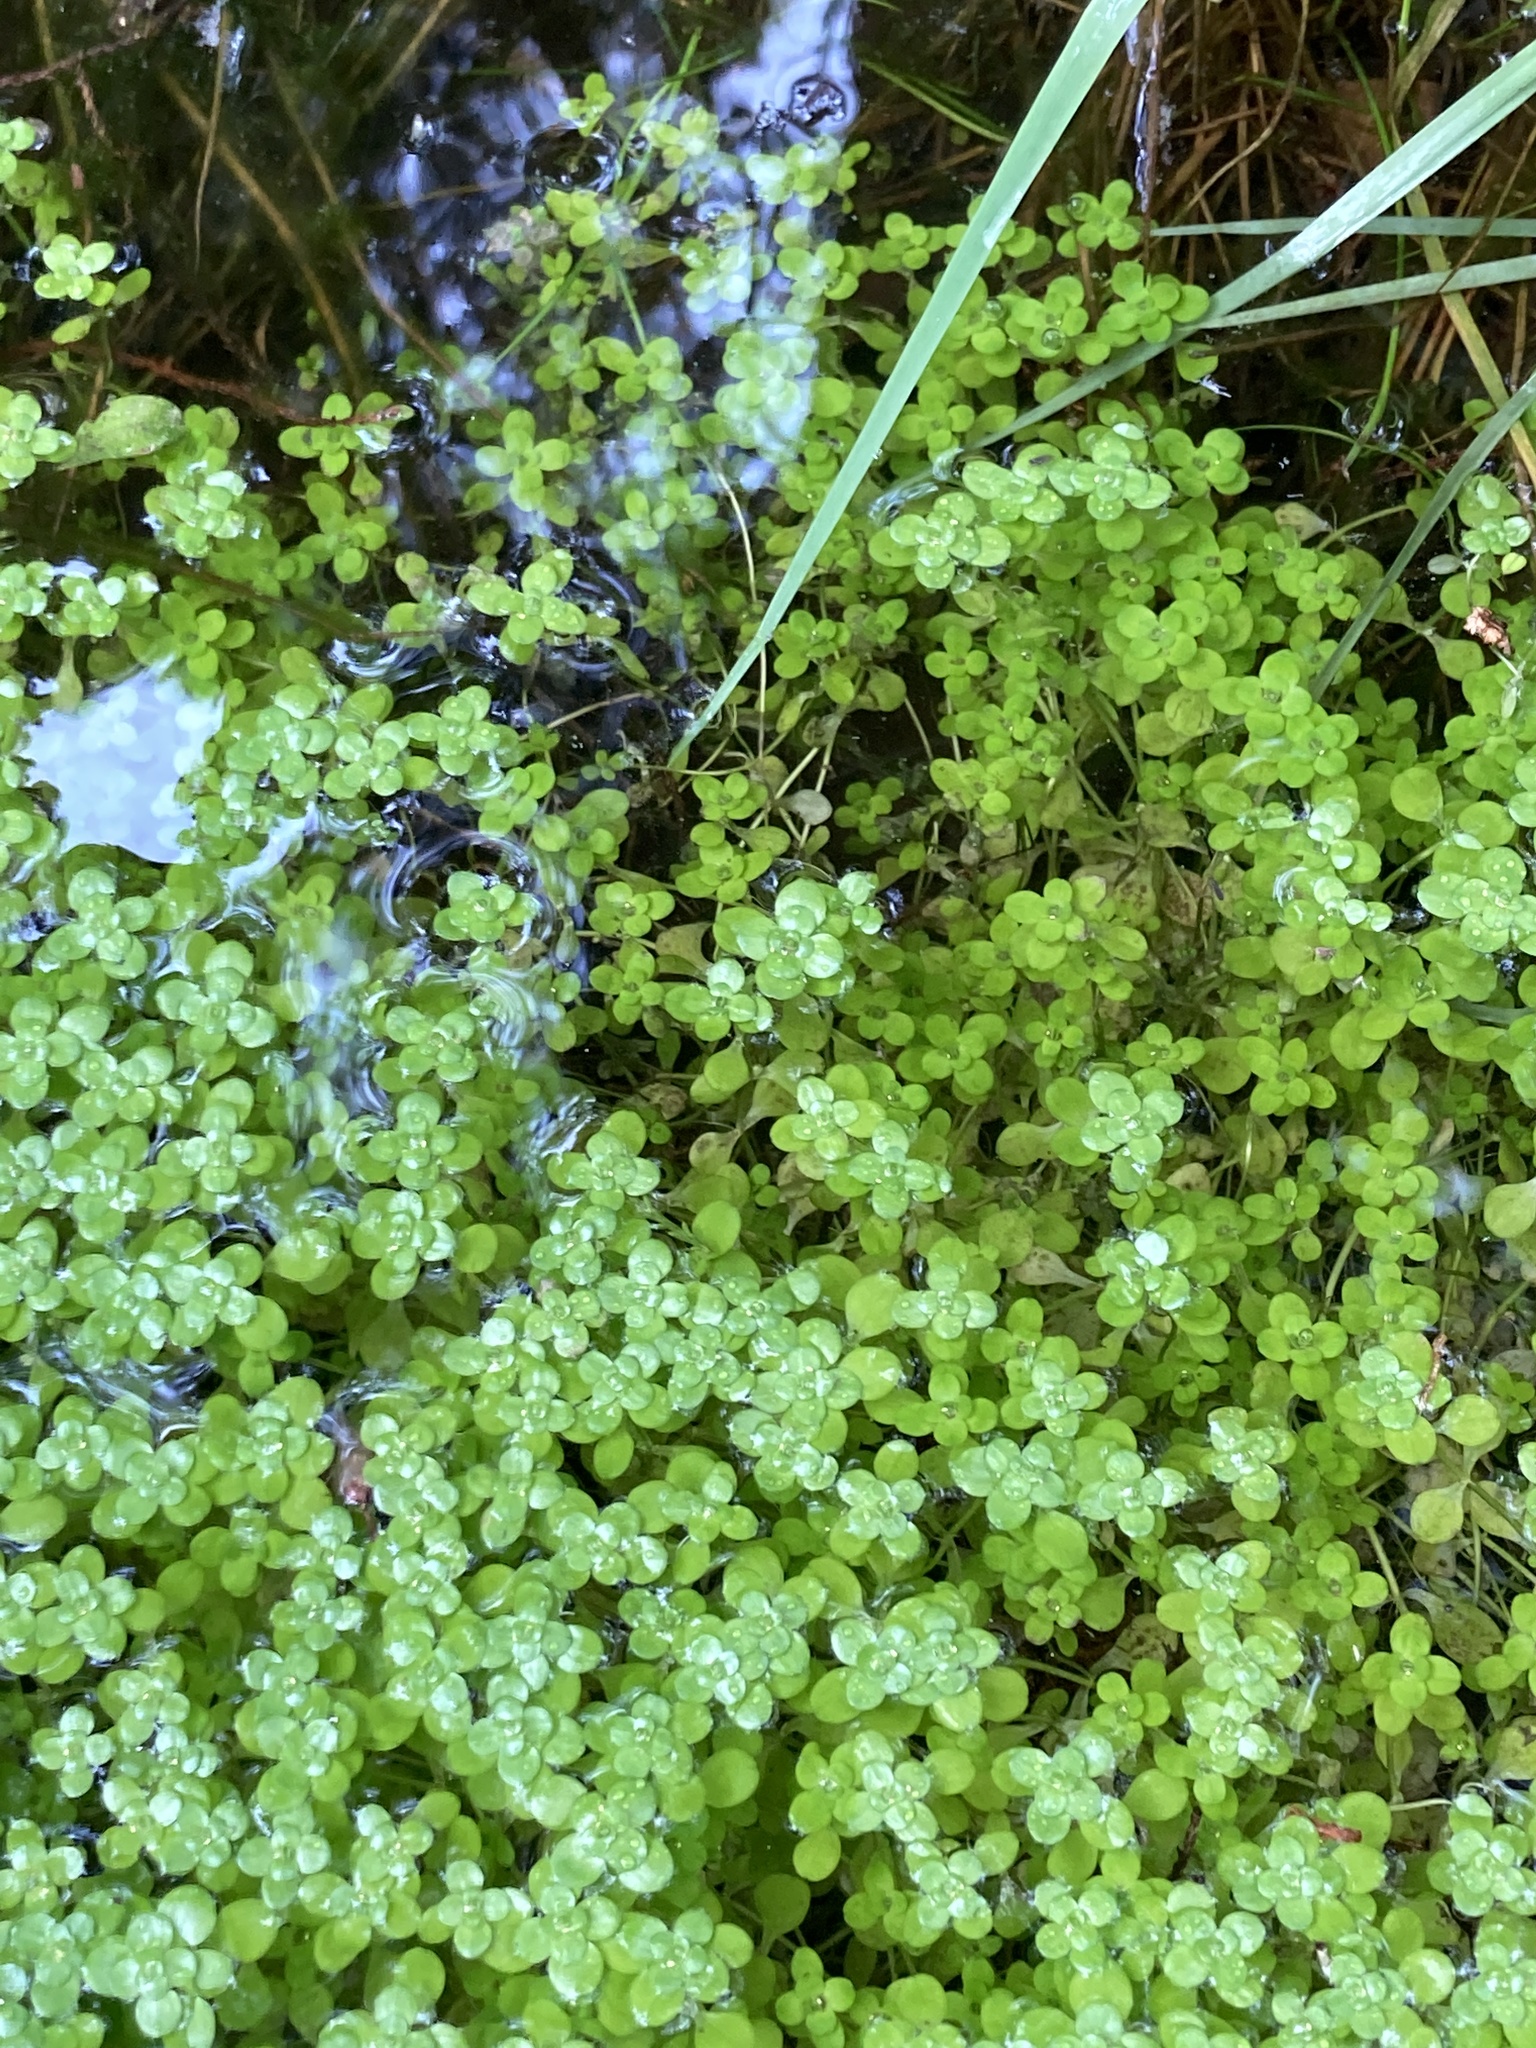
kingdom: Plantae
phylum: Tracheophyta
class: Magnoliopsida
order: Lamiales
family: Plantaginaceae
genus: Callitriche
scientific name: Callitriche stagnalis
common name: Common water-starwort
